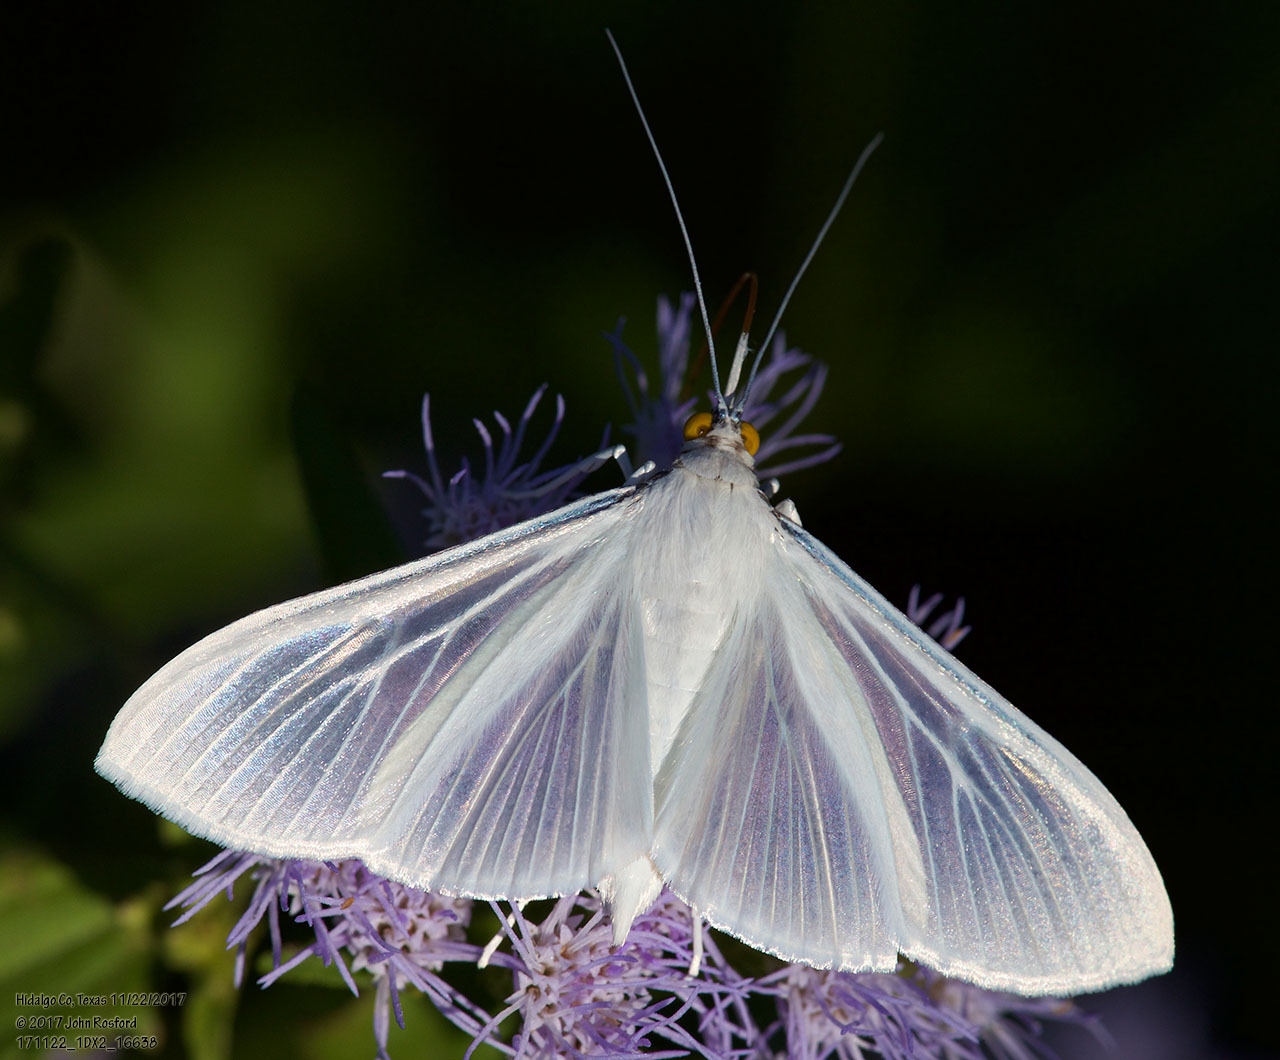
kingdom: Animalia
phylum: Arthropoda
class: Insecta
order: Lepidoptera
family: Crambidae
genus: Palpita
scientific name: Palpita flegia
